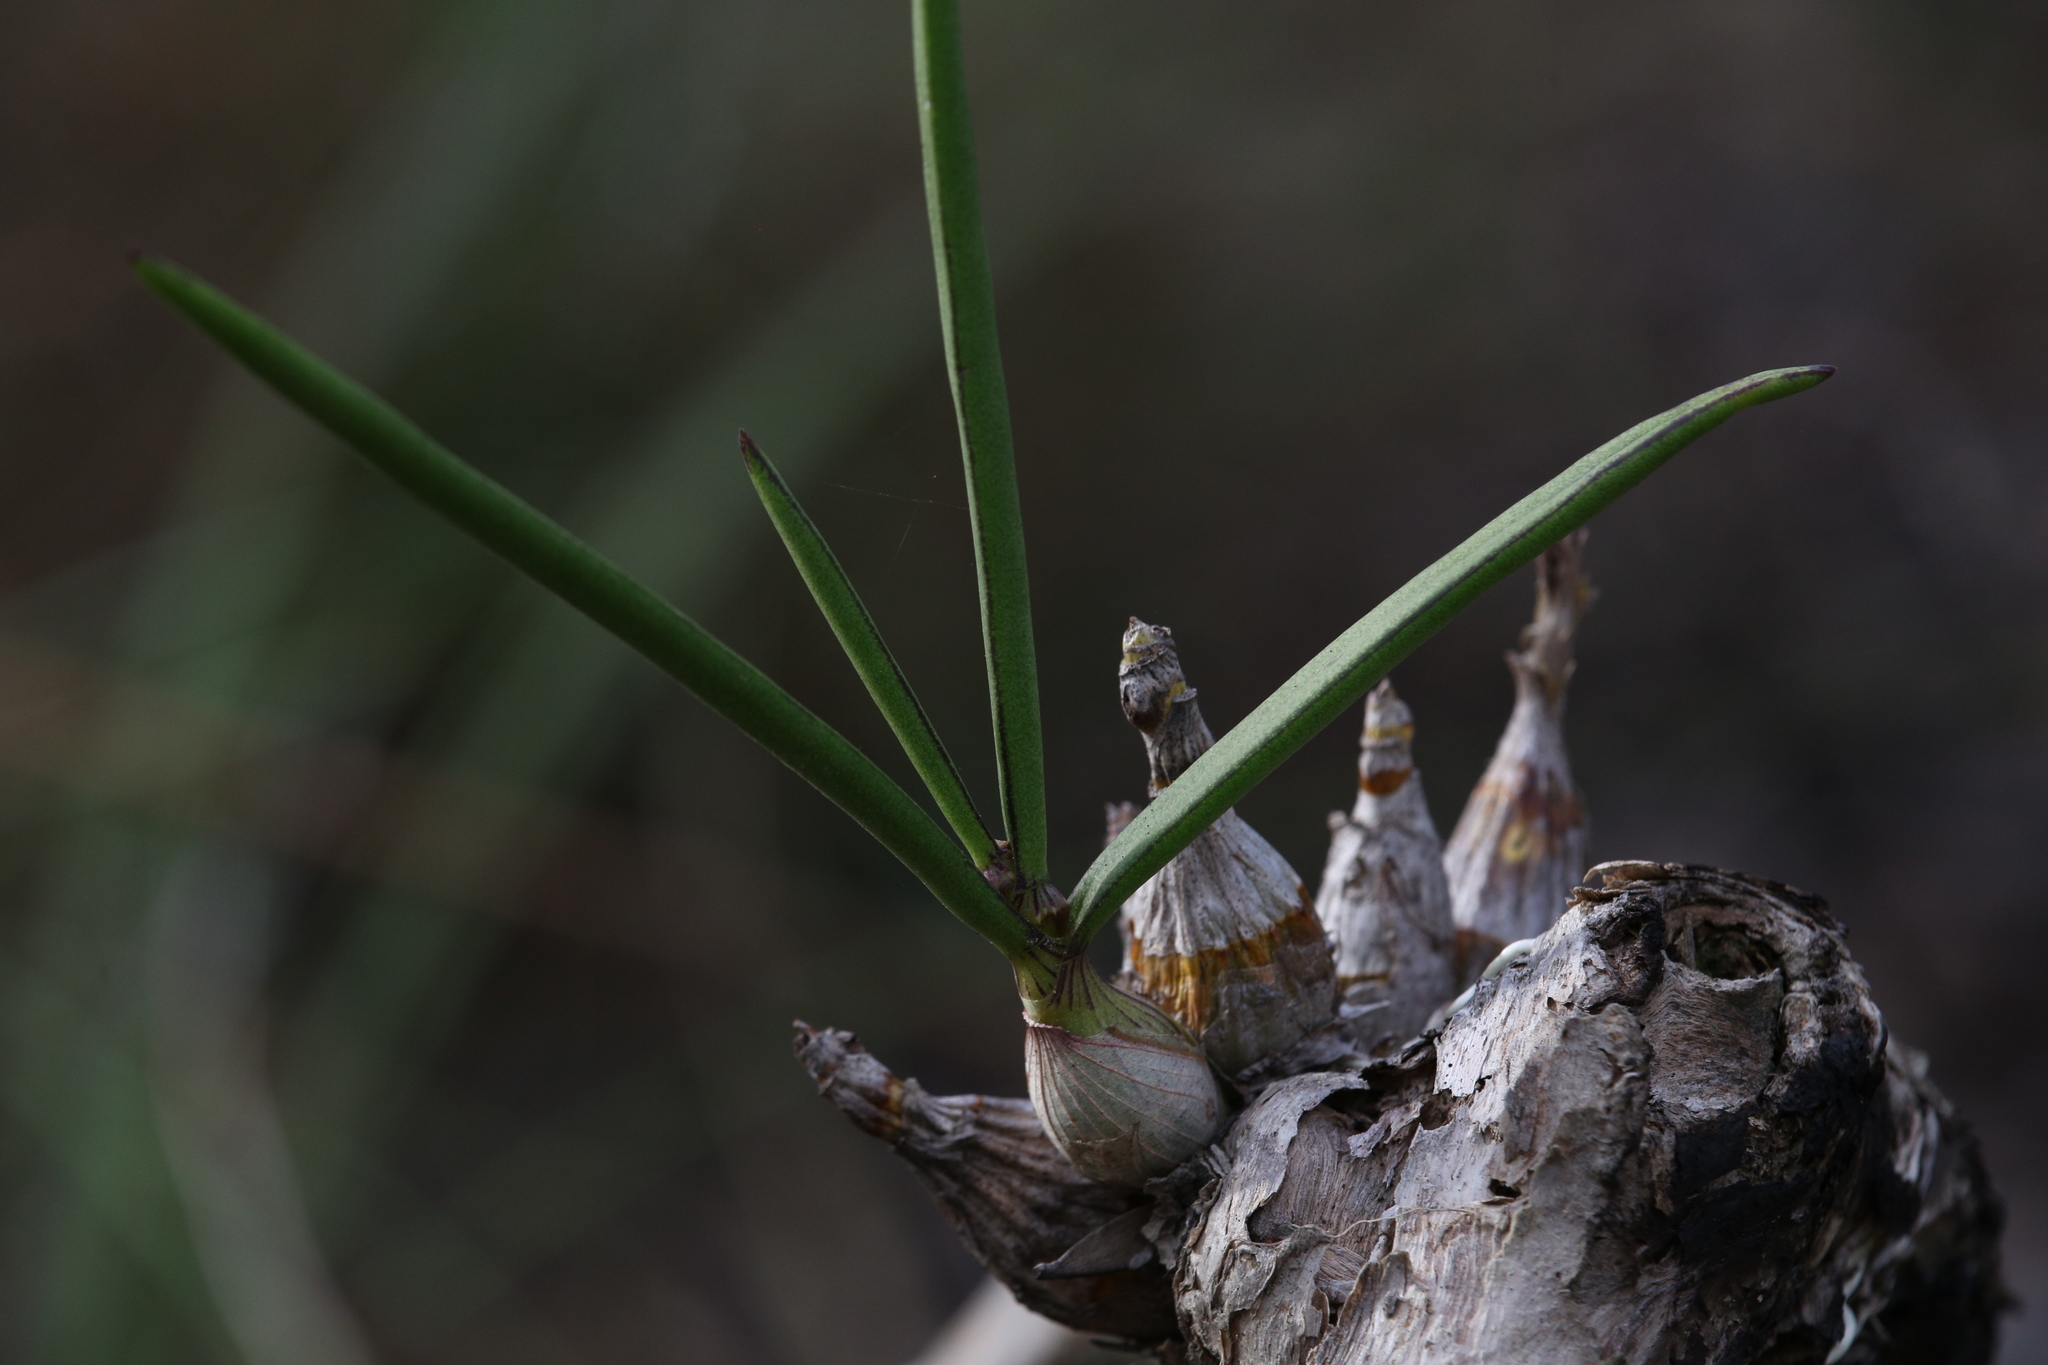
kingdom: Plantae
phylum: Tracheophyta
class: Liliopsida
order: Asparagales
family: Orchidaceae
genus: Dendrobium
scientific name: Dendrobium canaliculatum
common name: Tea tree orchid
